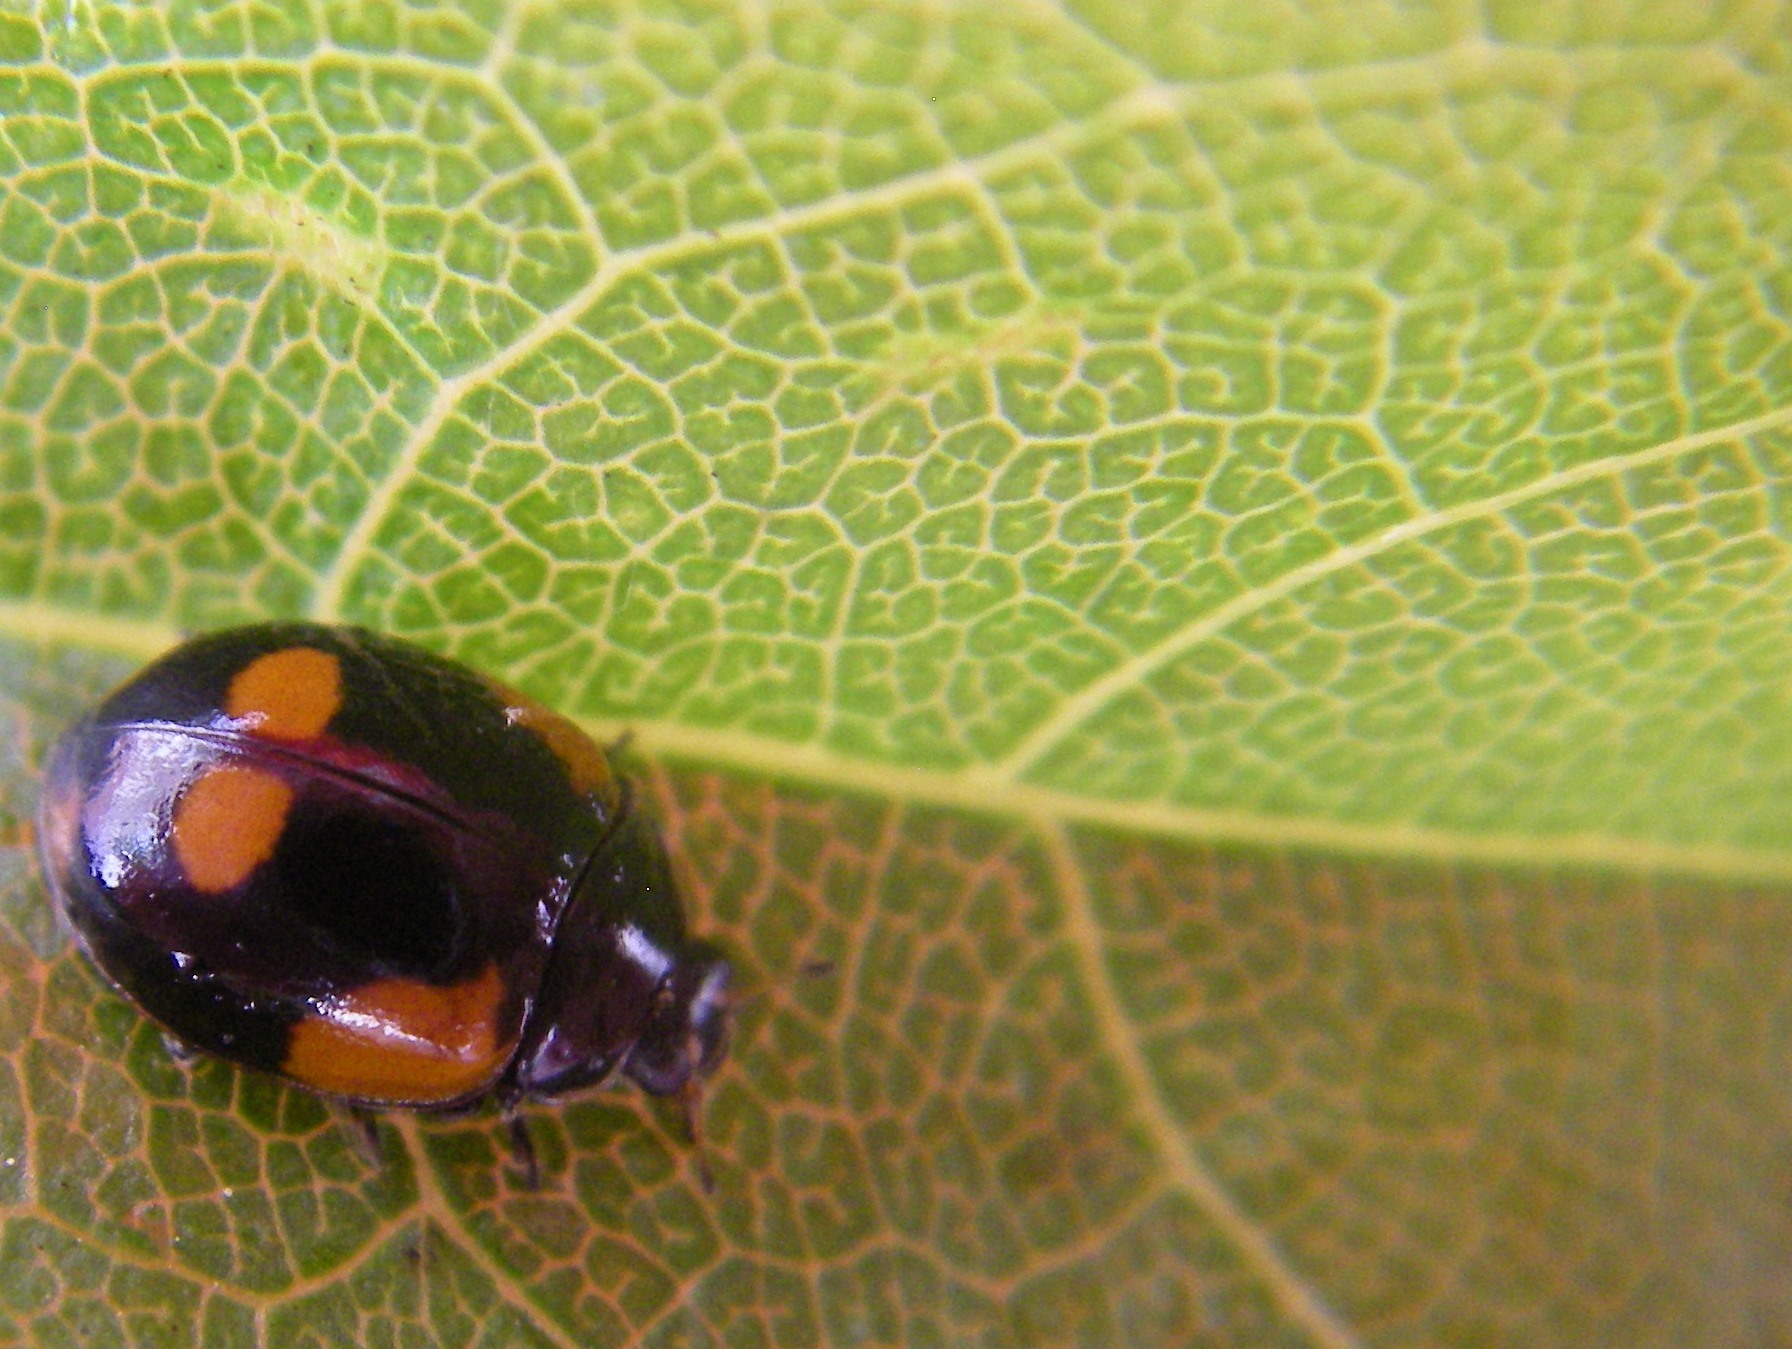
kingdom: Animalia
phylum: Arthropoda
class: Insecta
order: Coleoptera
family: Coccinellidae
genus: Adalia
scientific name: Adalia bipunctata
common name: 2-spot ladybird
